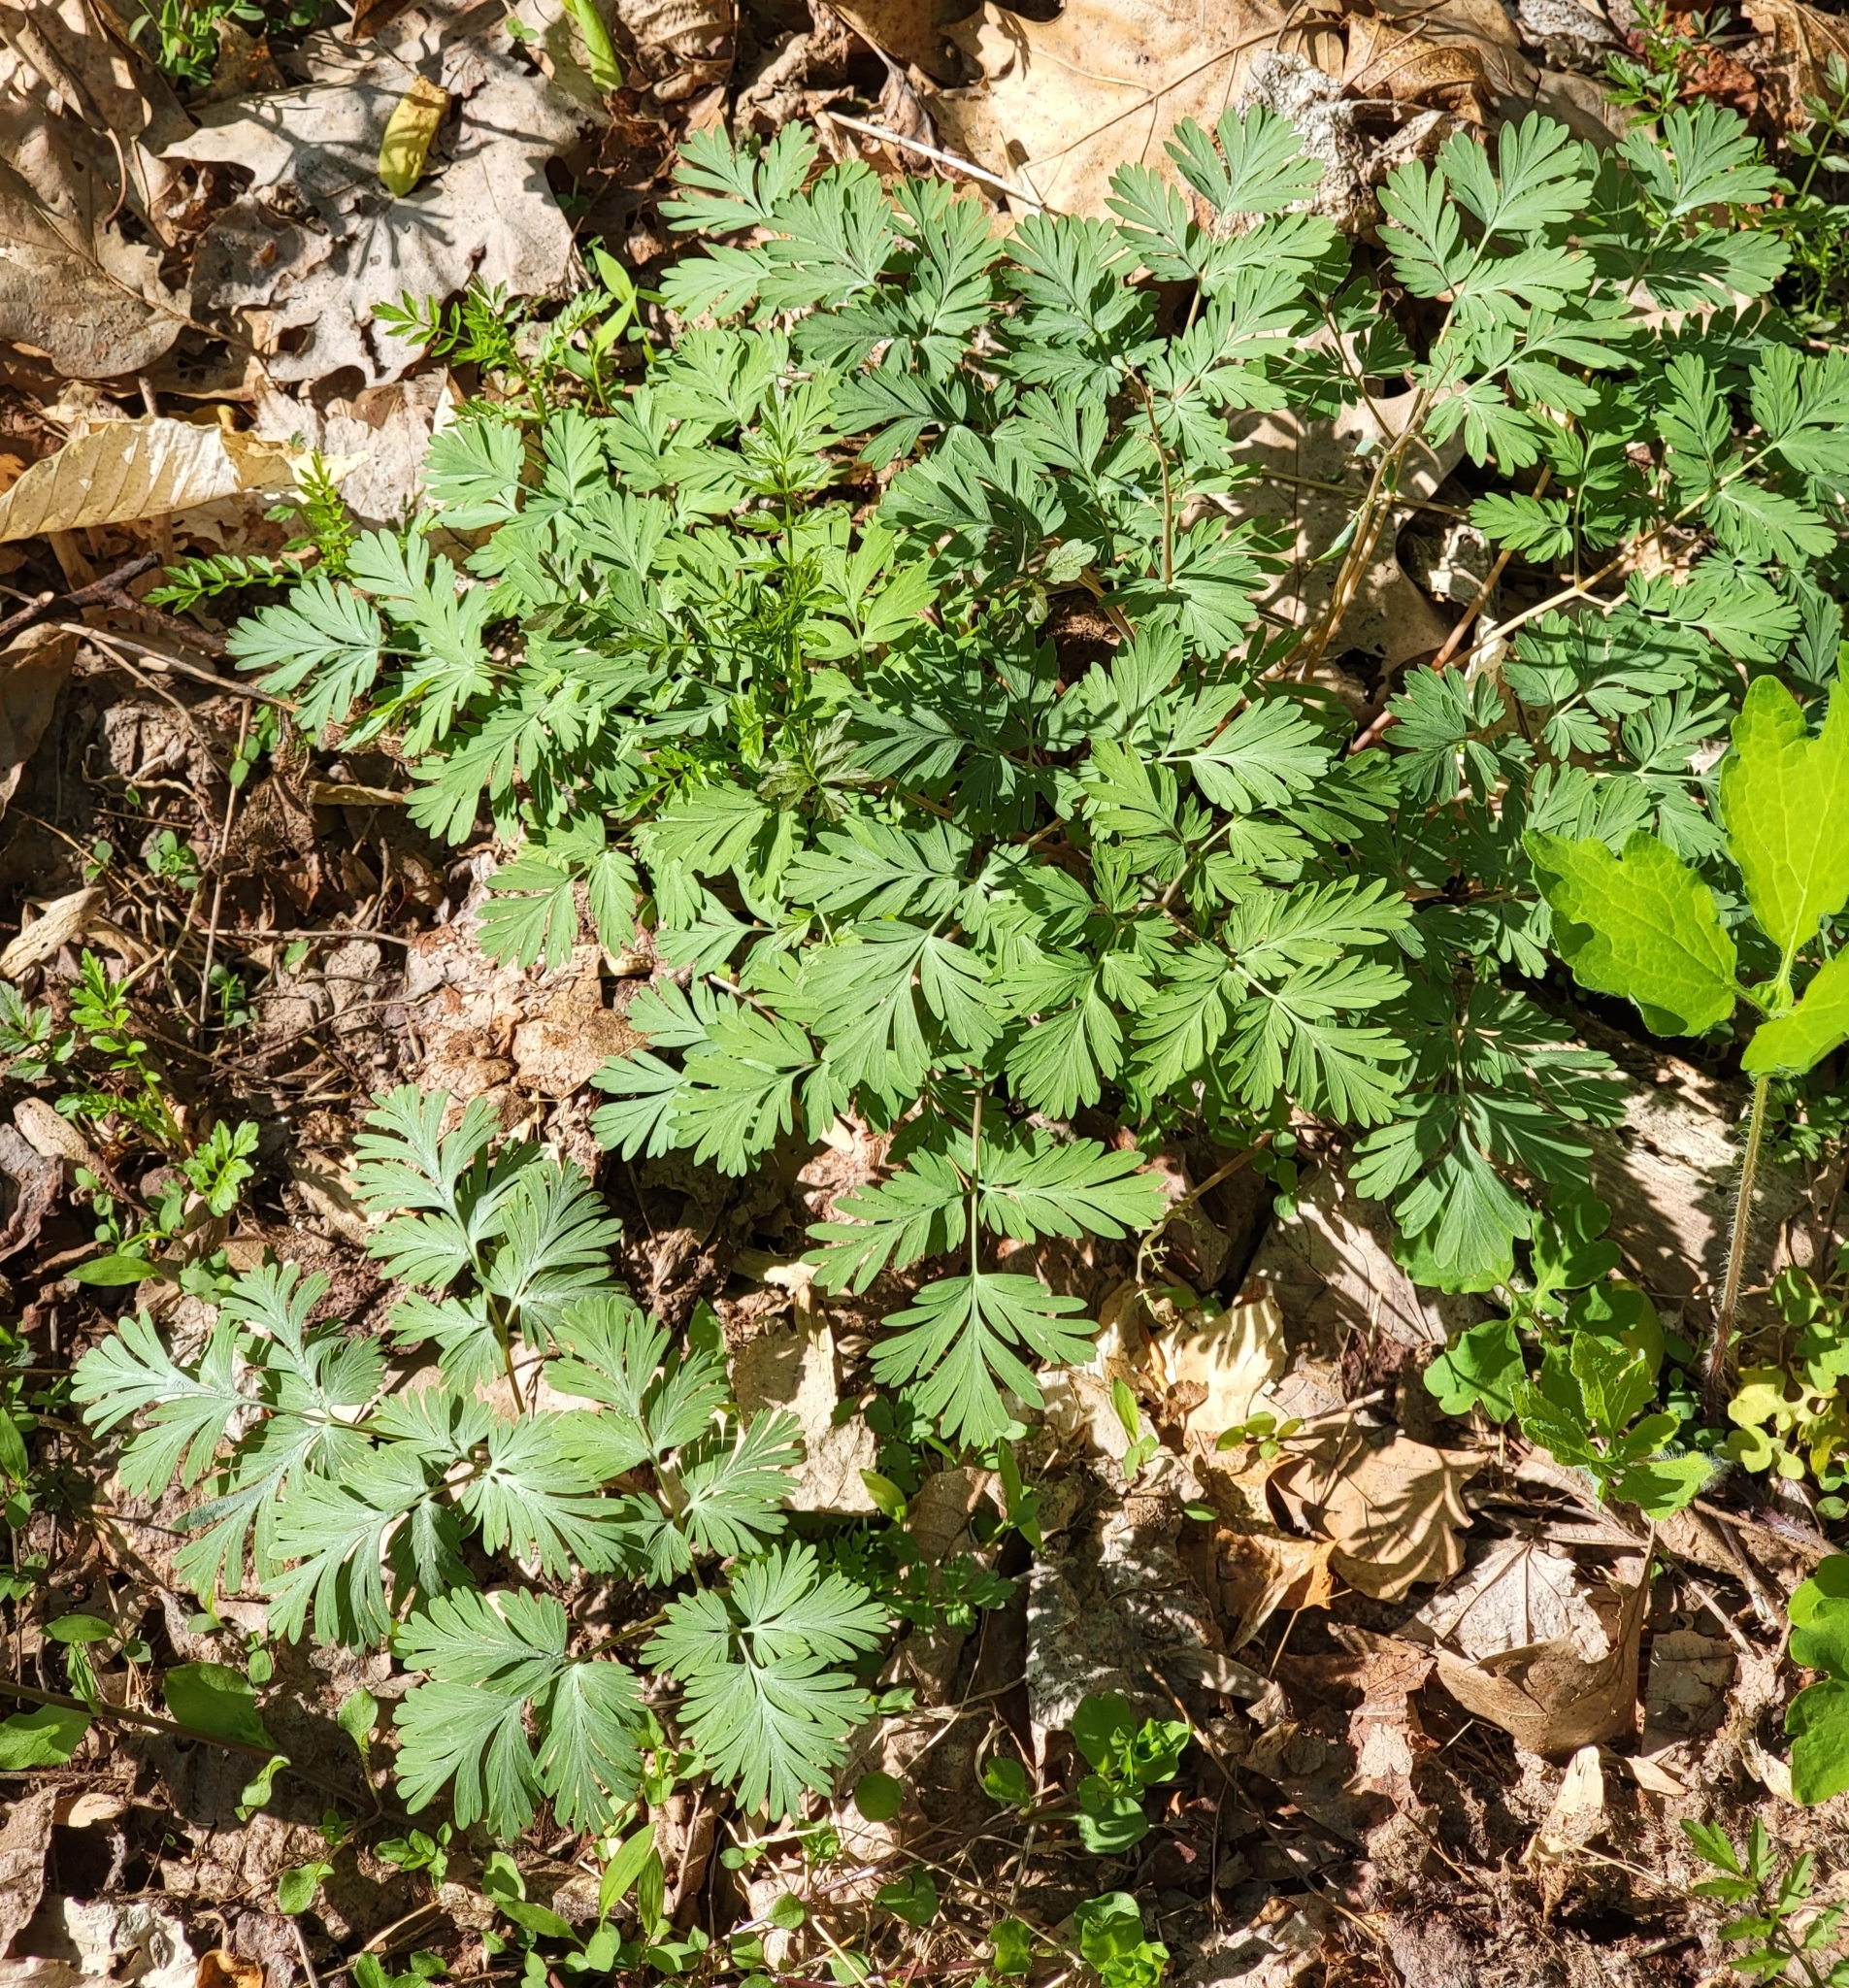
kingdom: Plantae
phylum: Tracheophyta
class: Magnoliopsida
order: Ranunculales
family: Papaveraceae
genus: Dicentra
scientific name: Dicentra cucullaria
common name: Dutchman's breeches
